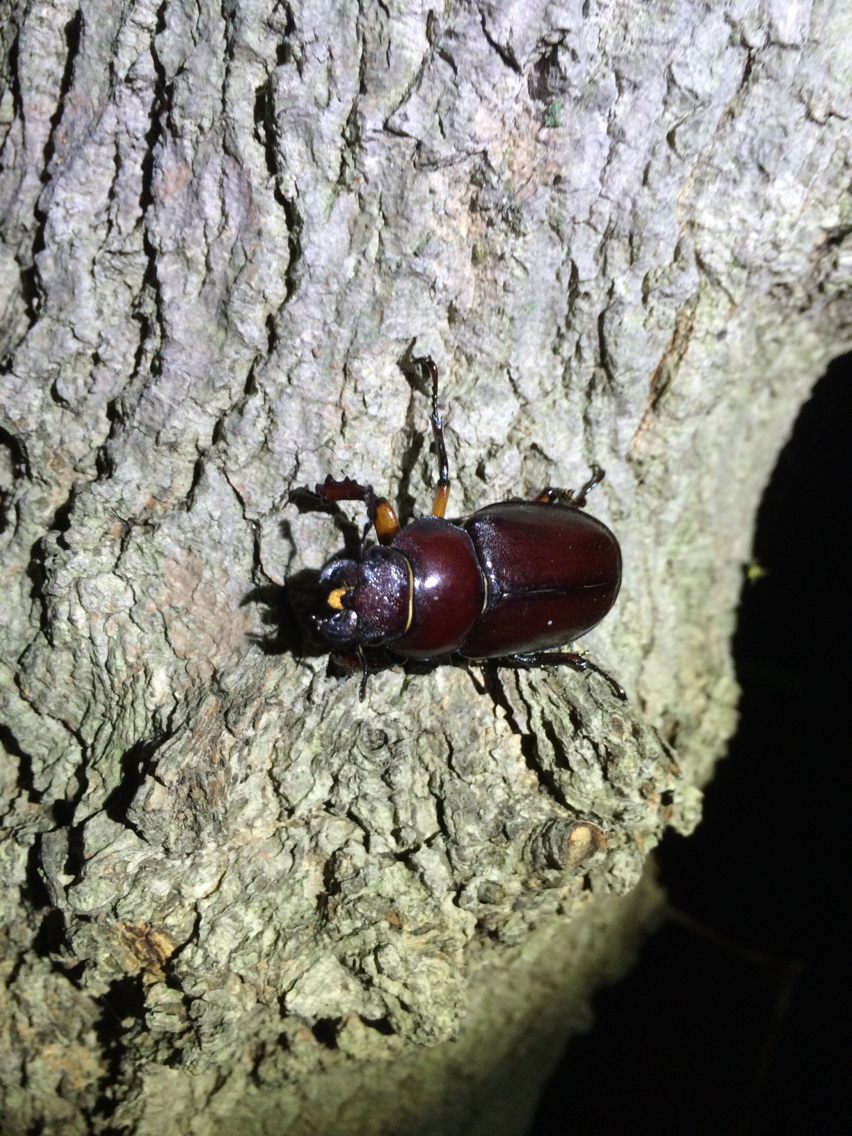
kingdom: Animalia
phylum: Arthropoda
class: Insecta
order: Coleoptera
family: Lucanidae
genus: Lucanus
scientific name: Lucanus capreolus
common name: Stag beetle
